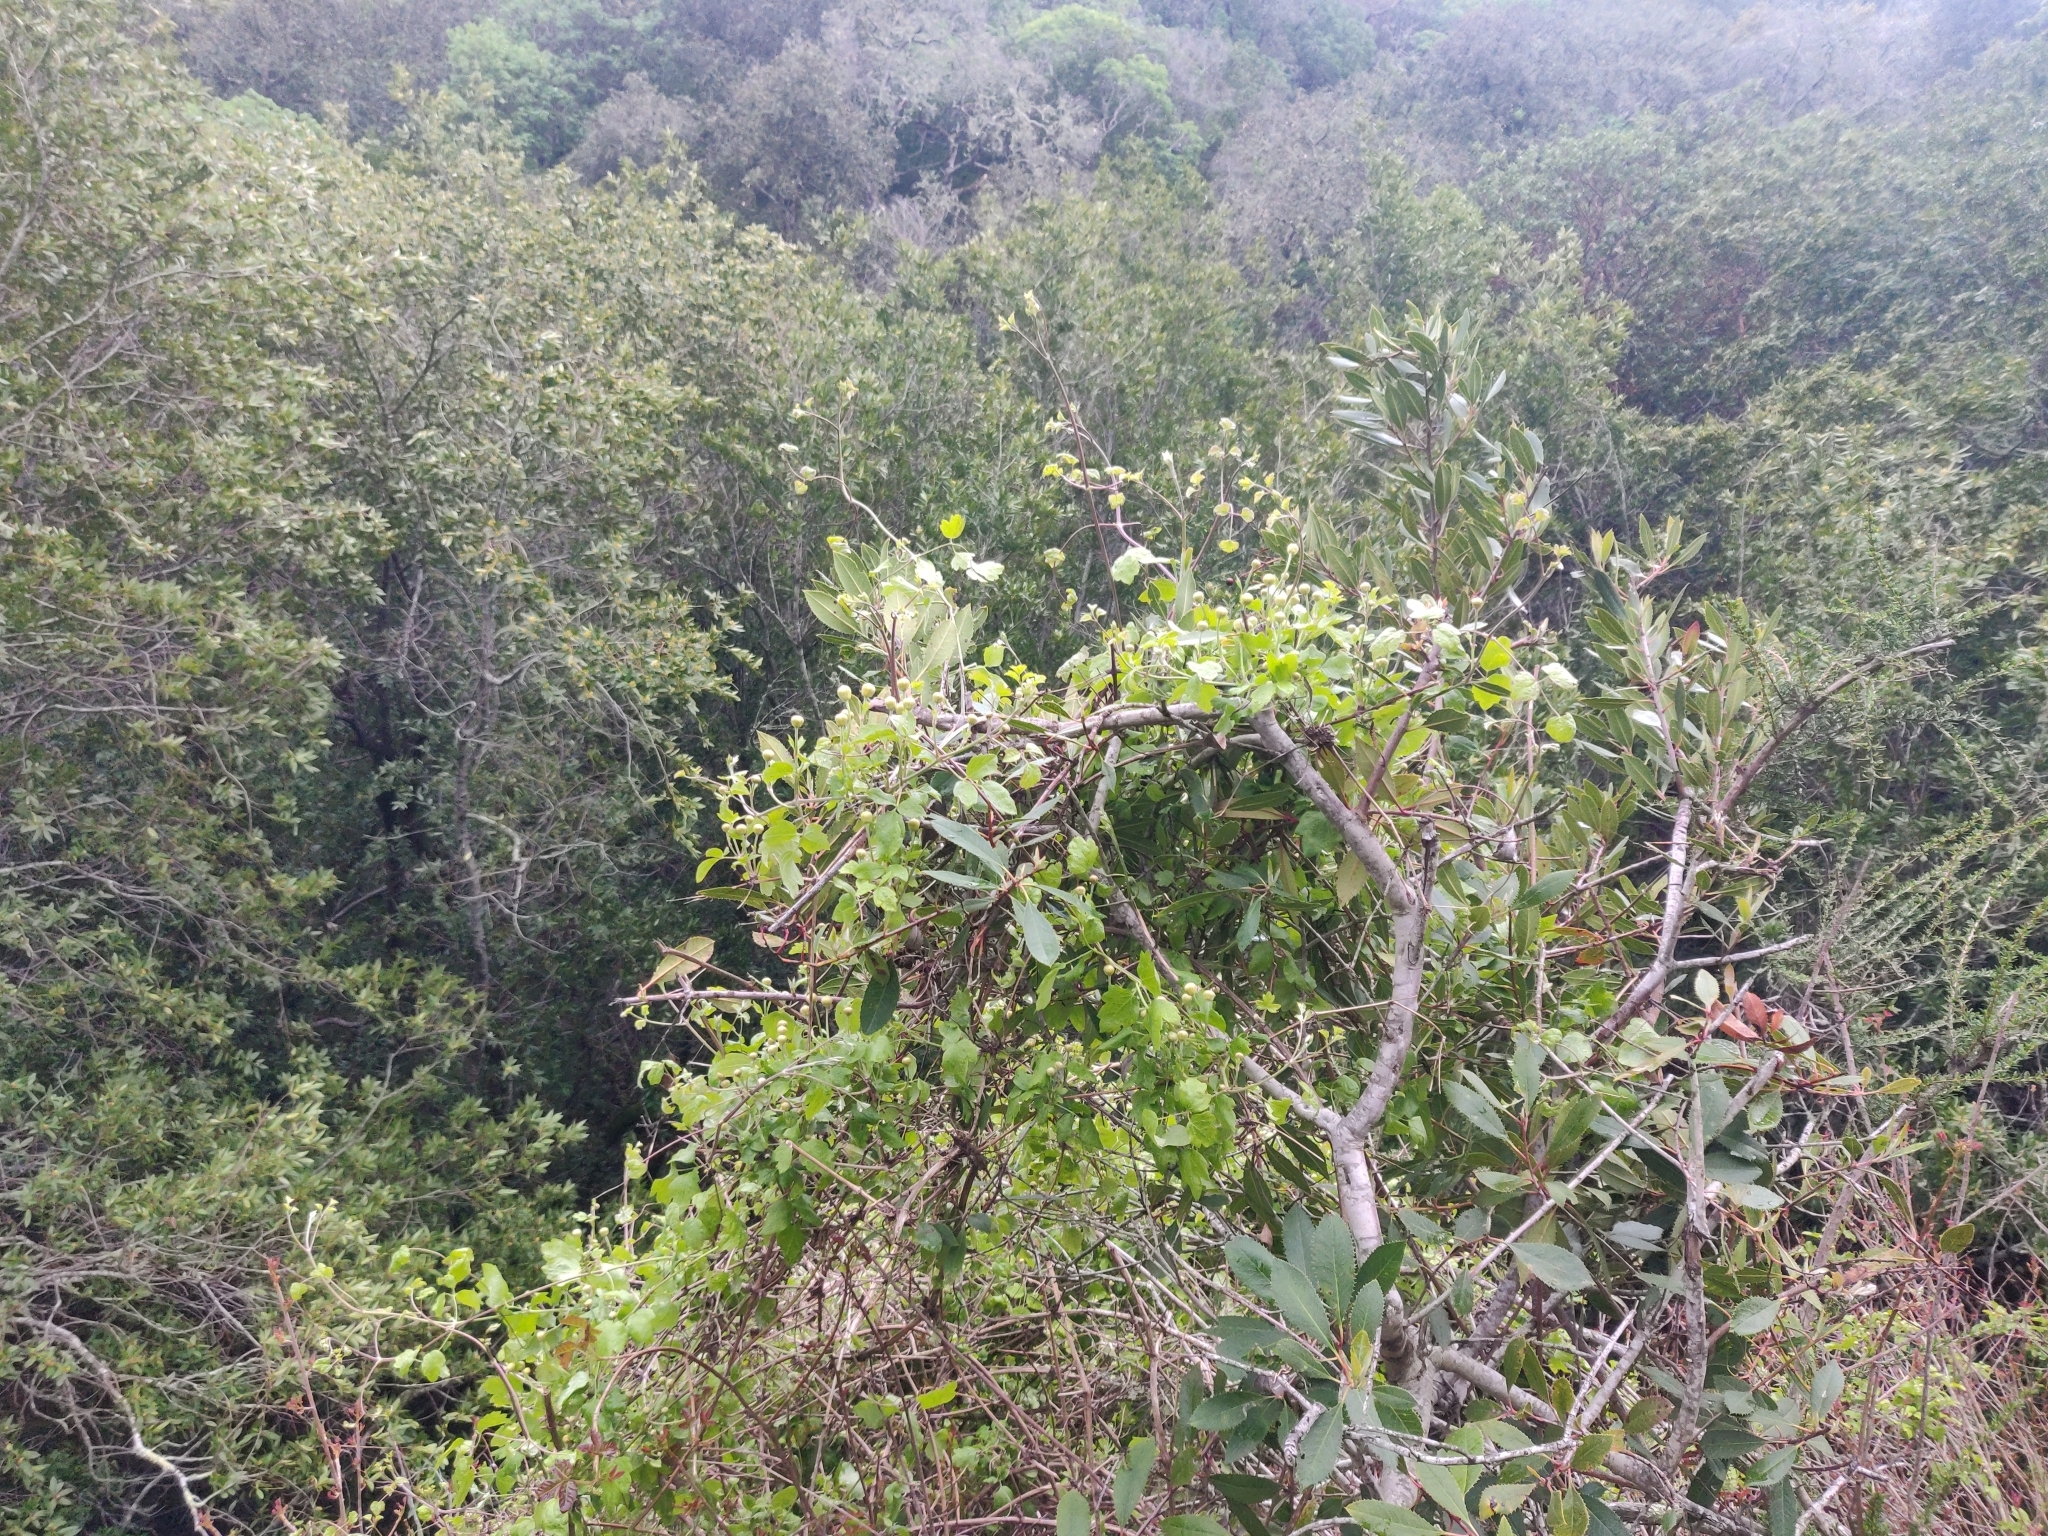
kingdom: Plantae
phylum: Tracheophyta
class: Magnoliopsida
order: Ranunculales
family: Ranunculaceae
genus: Clematis
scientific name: Clematis lasiantha
